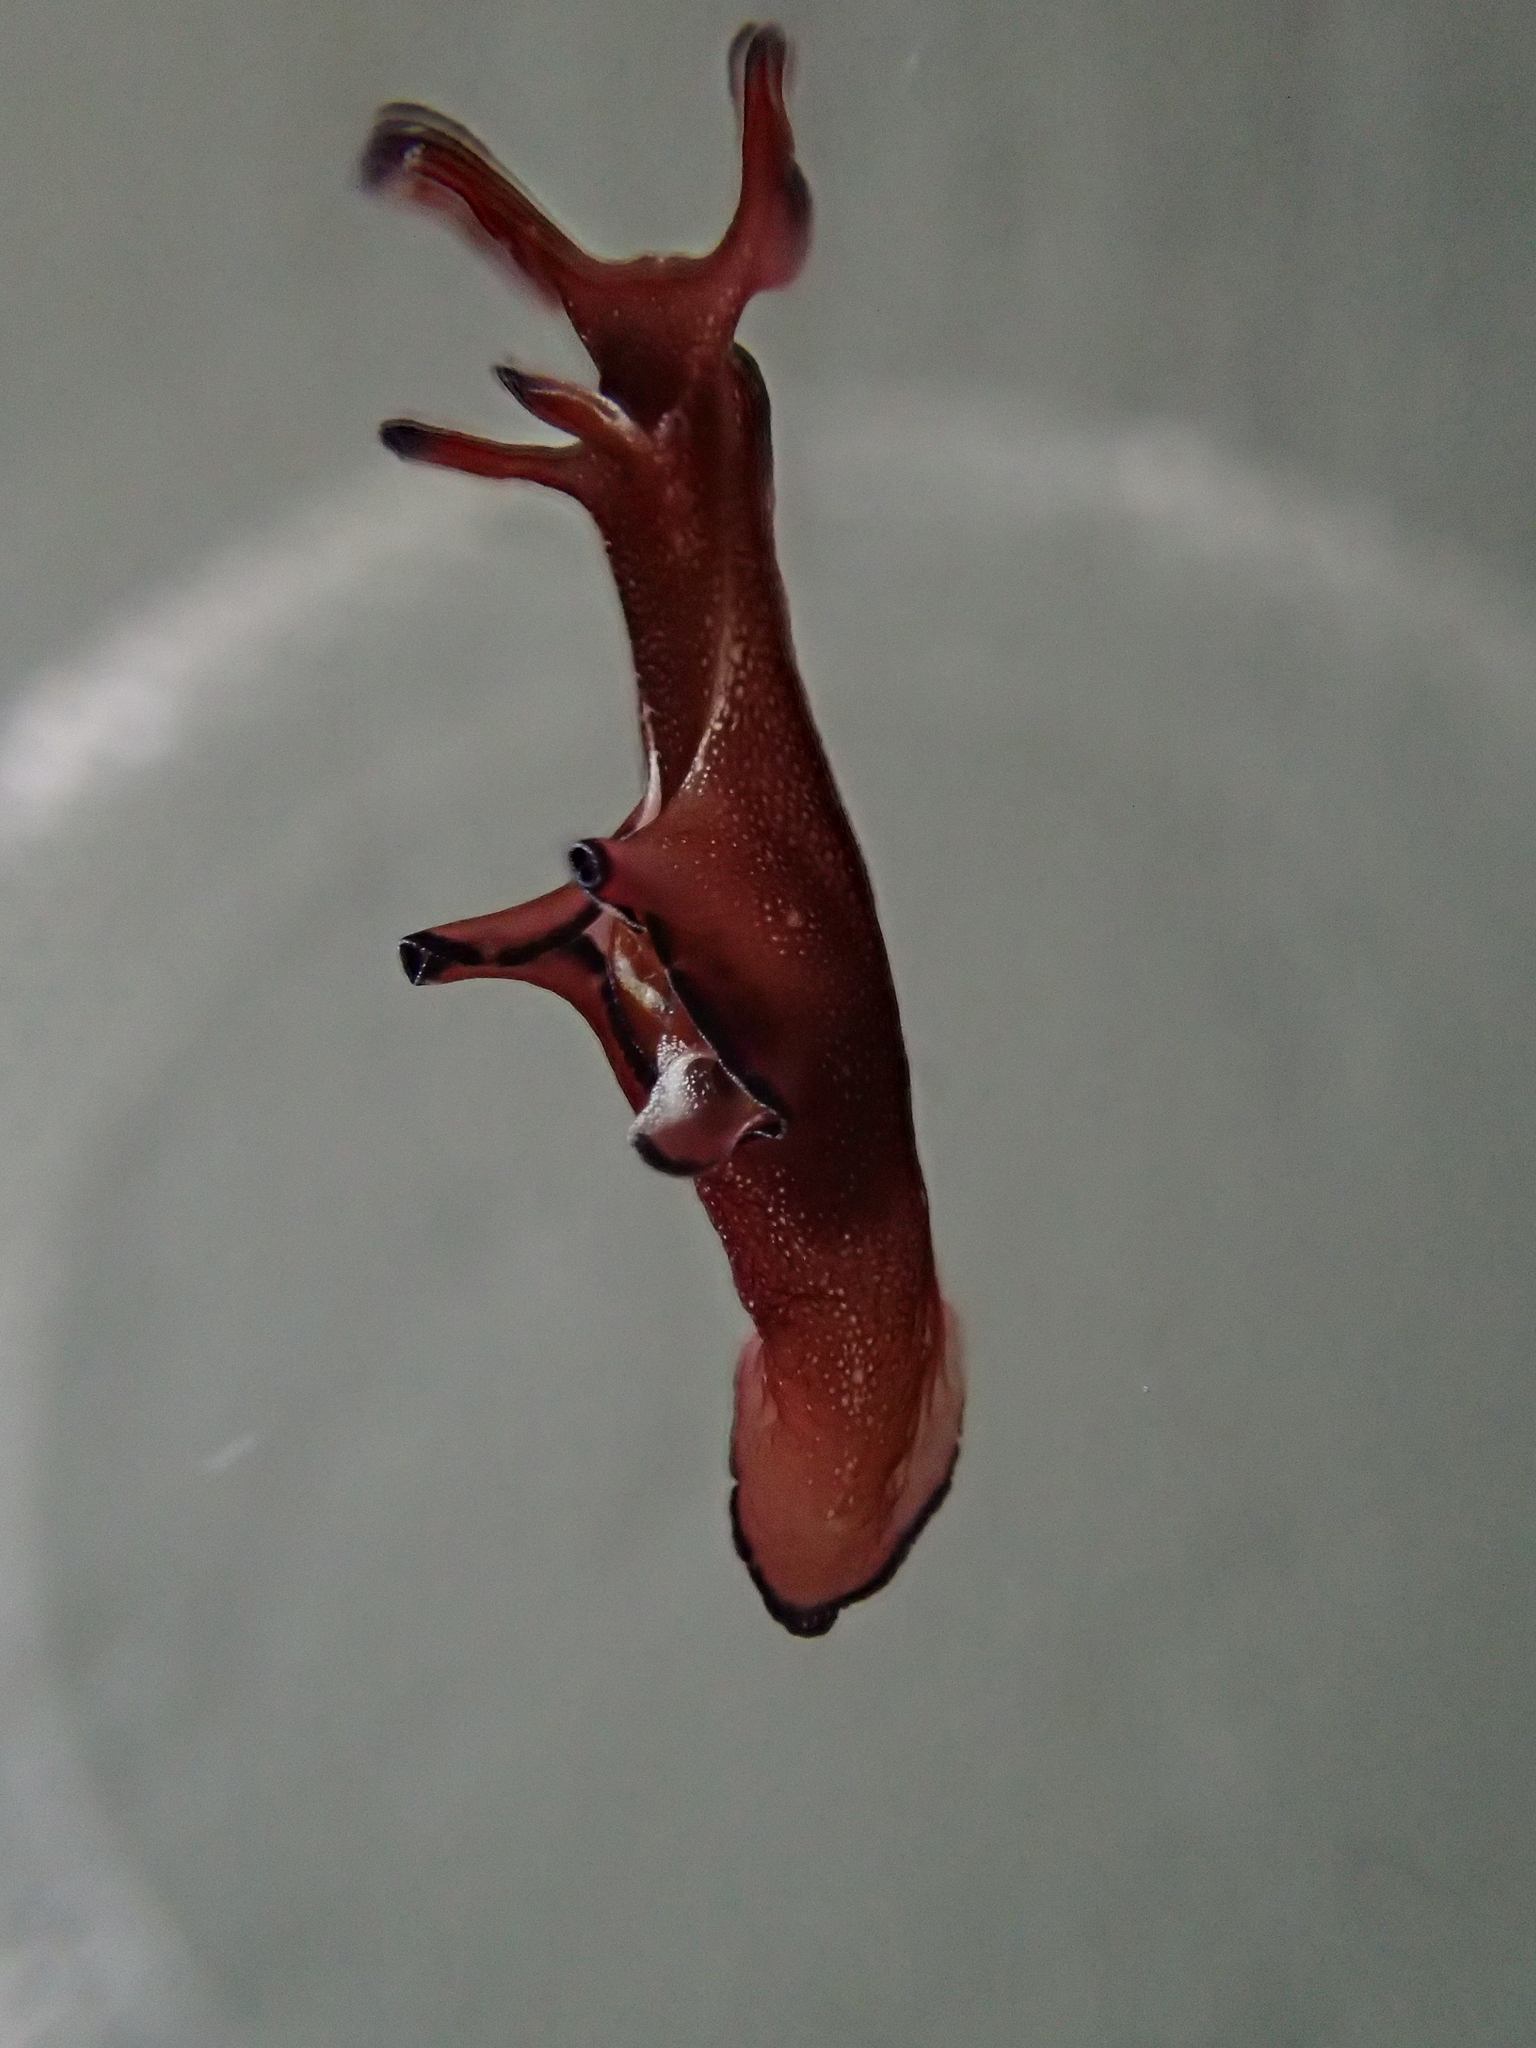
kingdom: Animalia
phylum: Mollusca
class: Gastropoda
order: Aplysiida
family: Aplysiidae
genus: Aplysia
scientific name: Aplysia punctata
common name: Common sea hare
